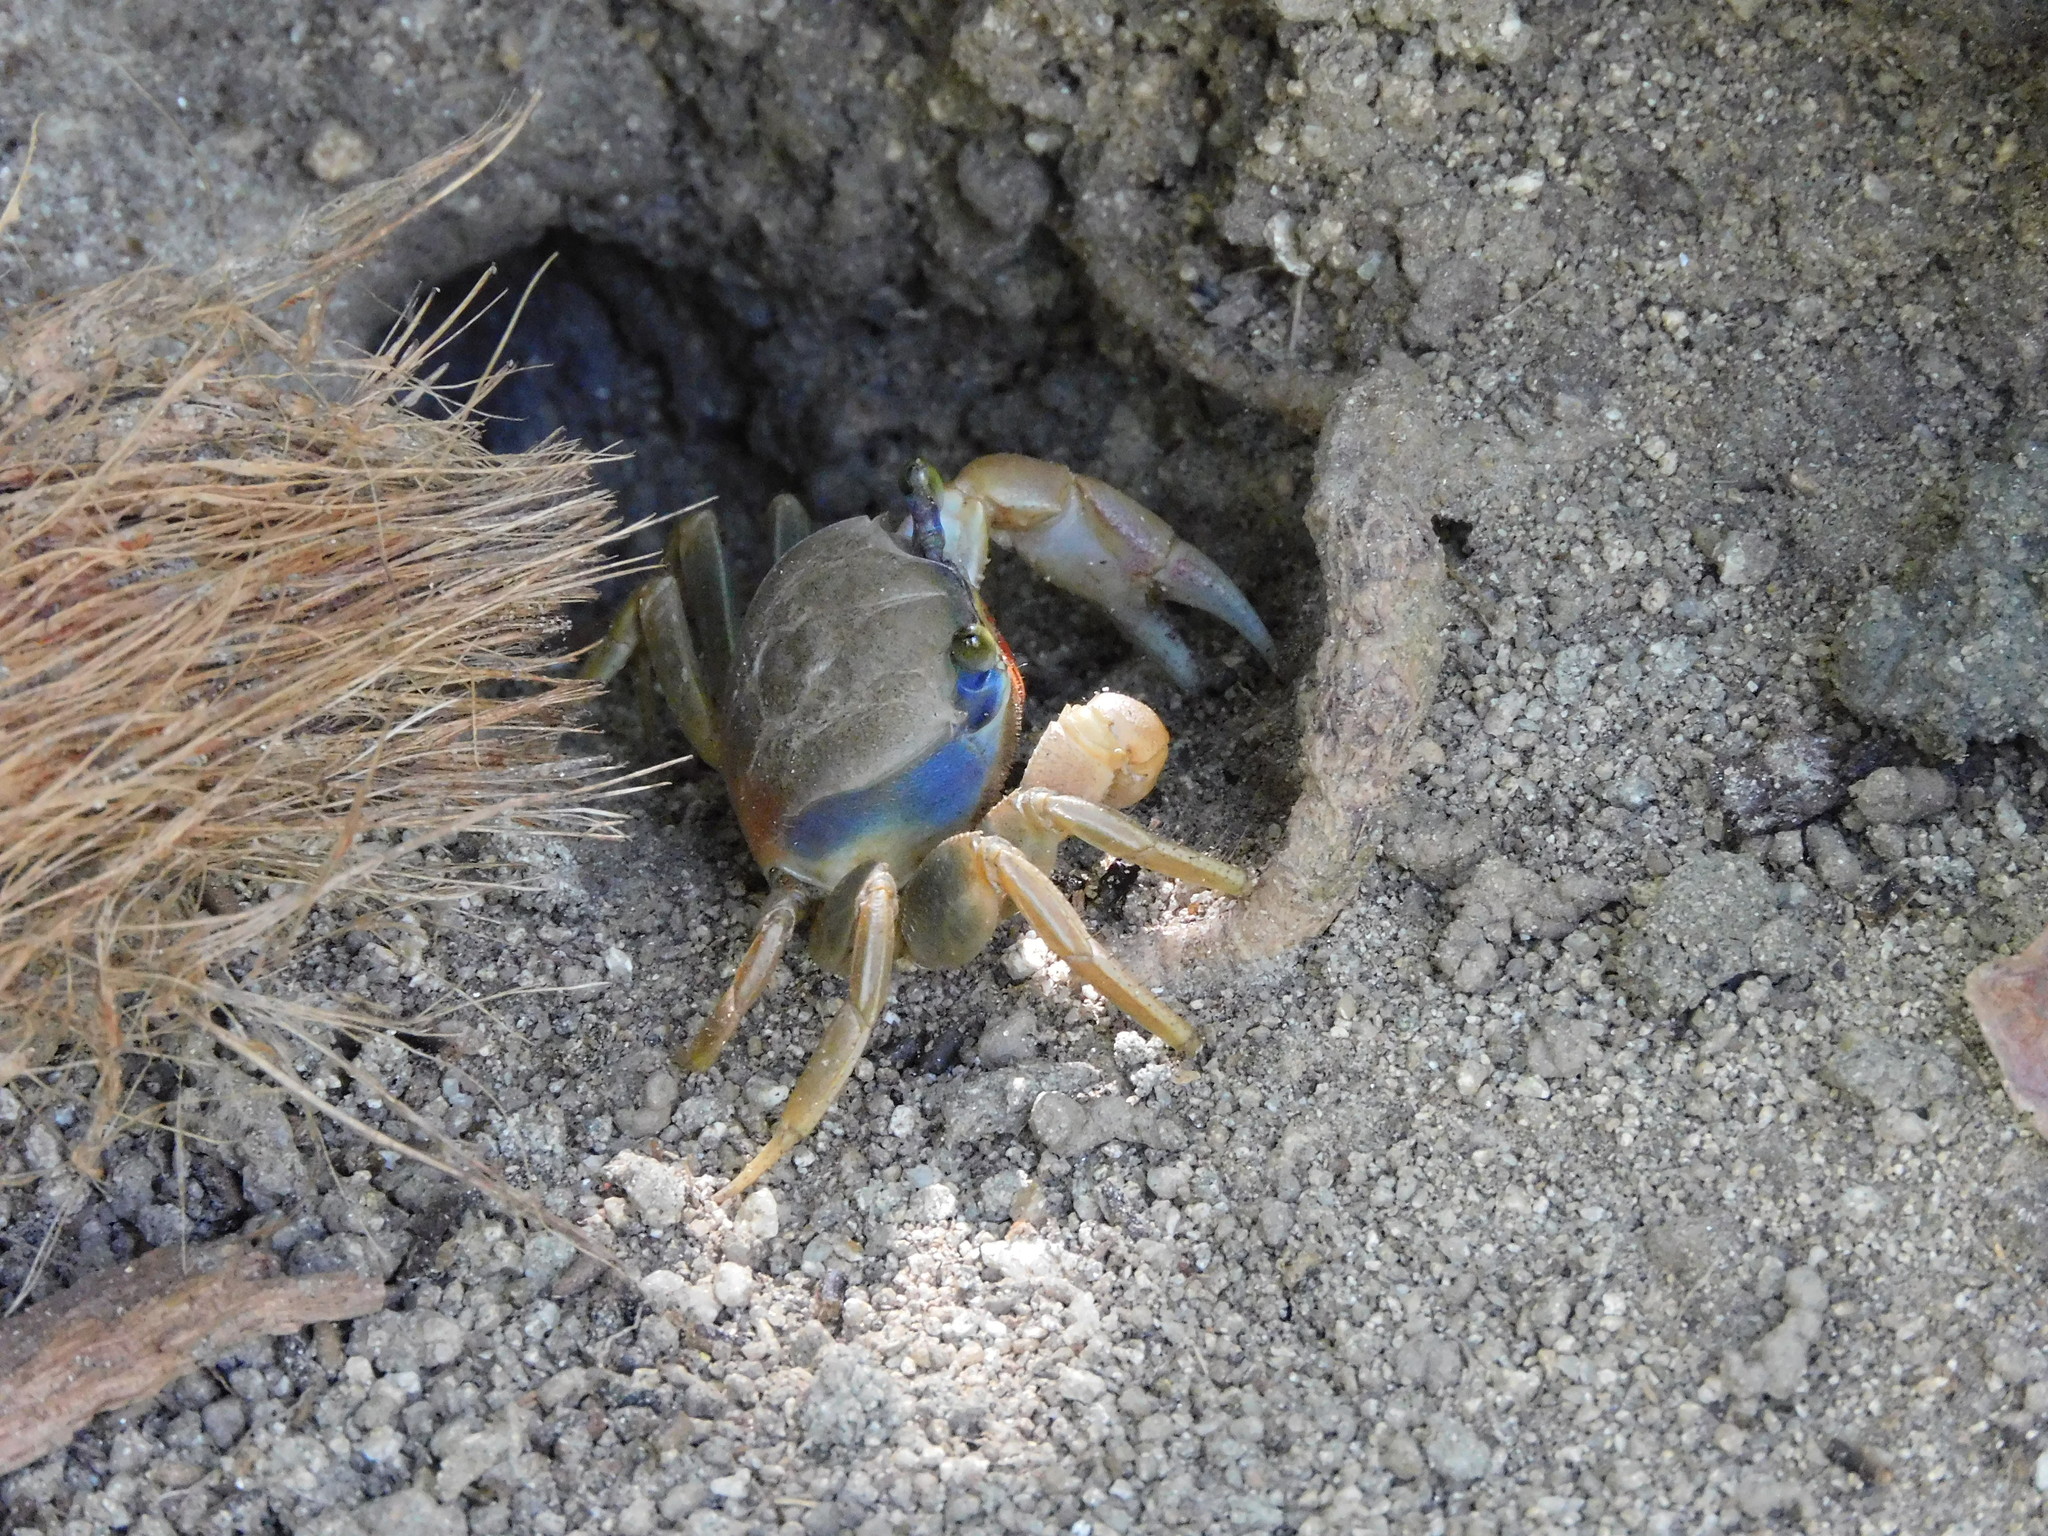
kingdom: Animalia
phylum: Arthropoda
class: Malacostraca
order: Decapoda
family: Gecarcinidae
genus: Cardisoma
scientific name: Cardisoma guanhumi
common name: Great land crab
